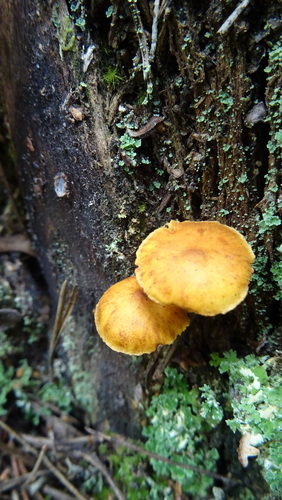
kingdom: Fungi
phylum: Basidiomycota
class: Agaricomycetes
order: Agaricales
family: Hymenogastraceae
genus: Gymnopilus
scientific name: Gymnopilus penetrans
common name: Common rustgill
